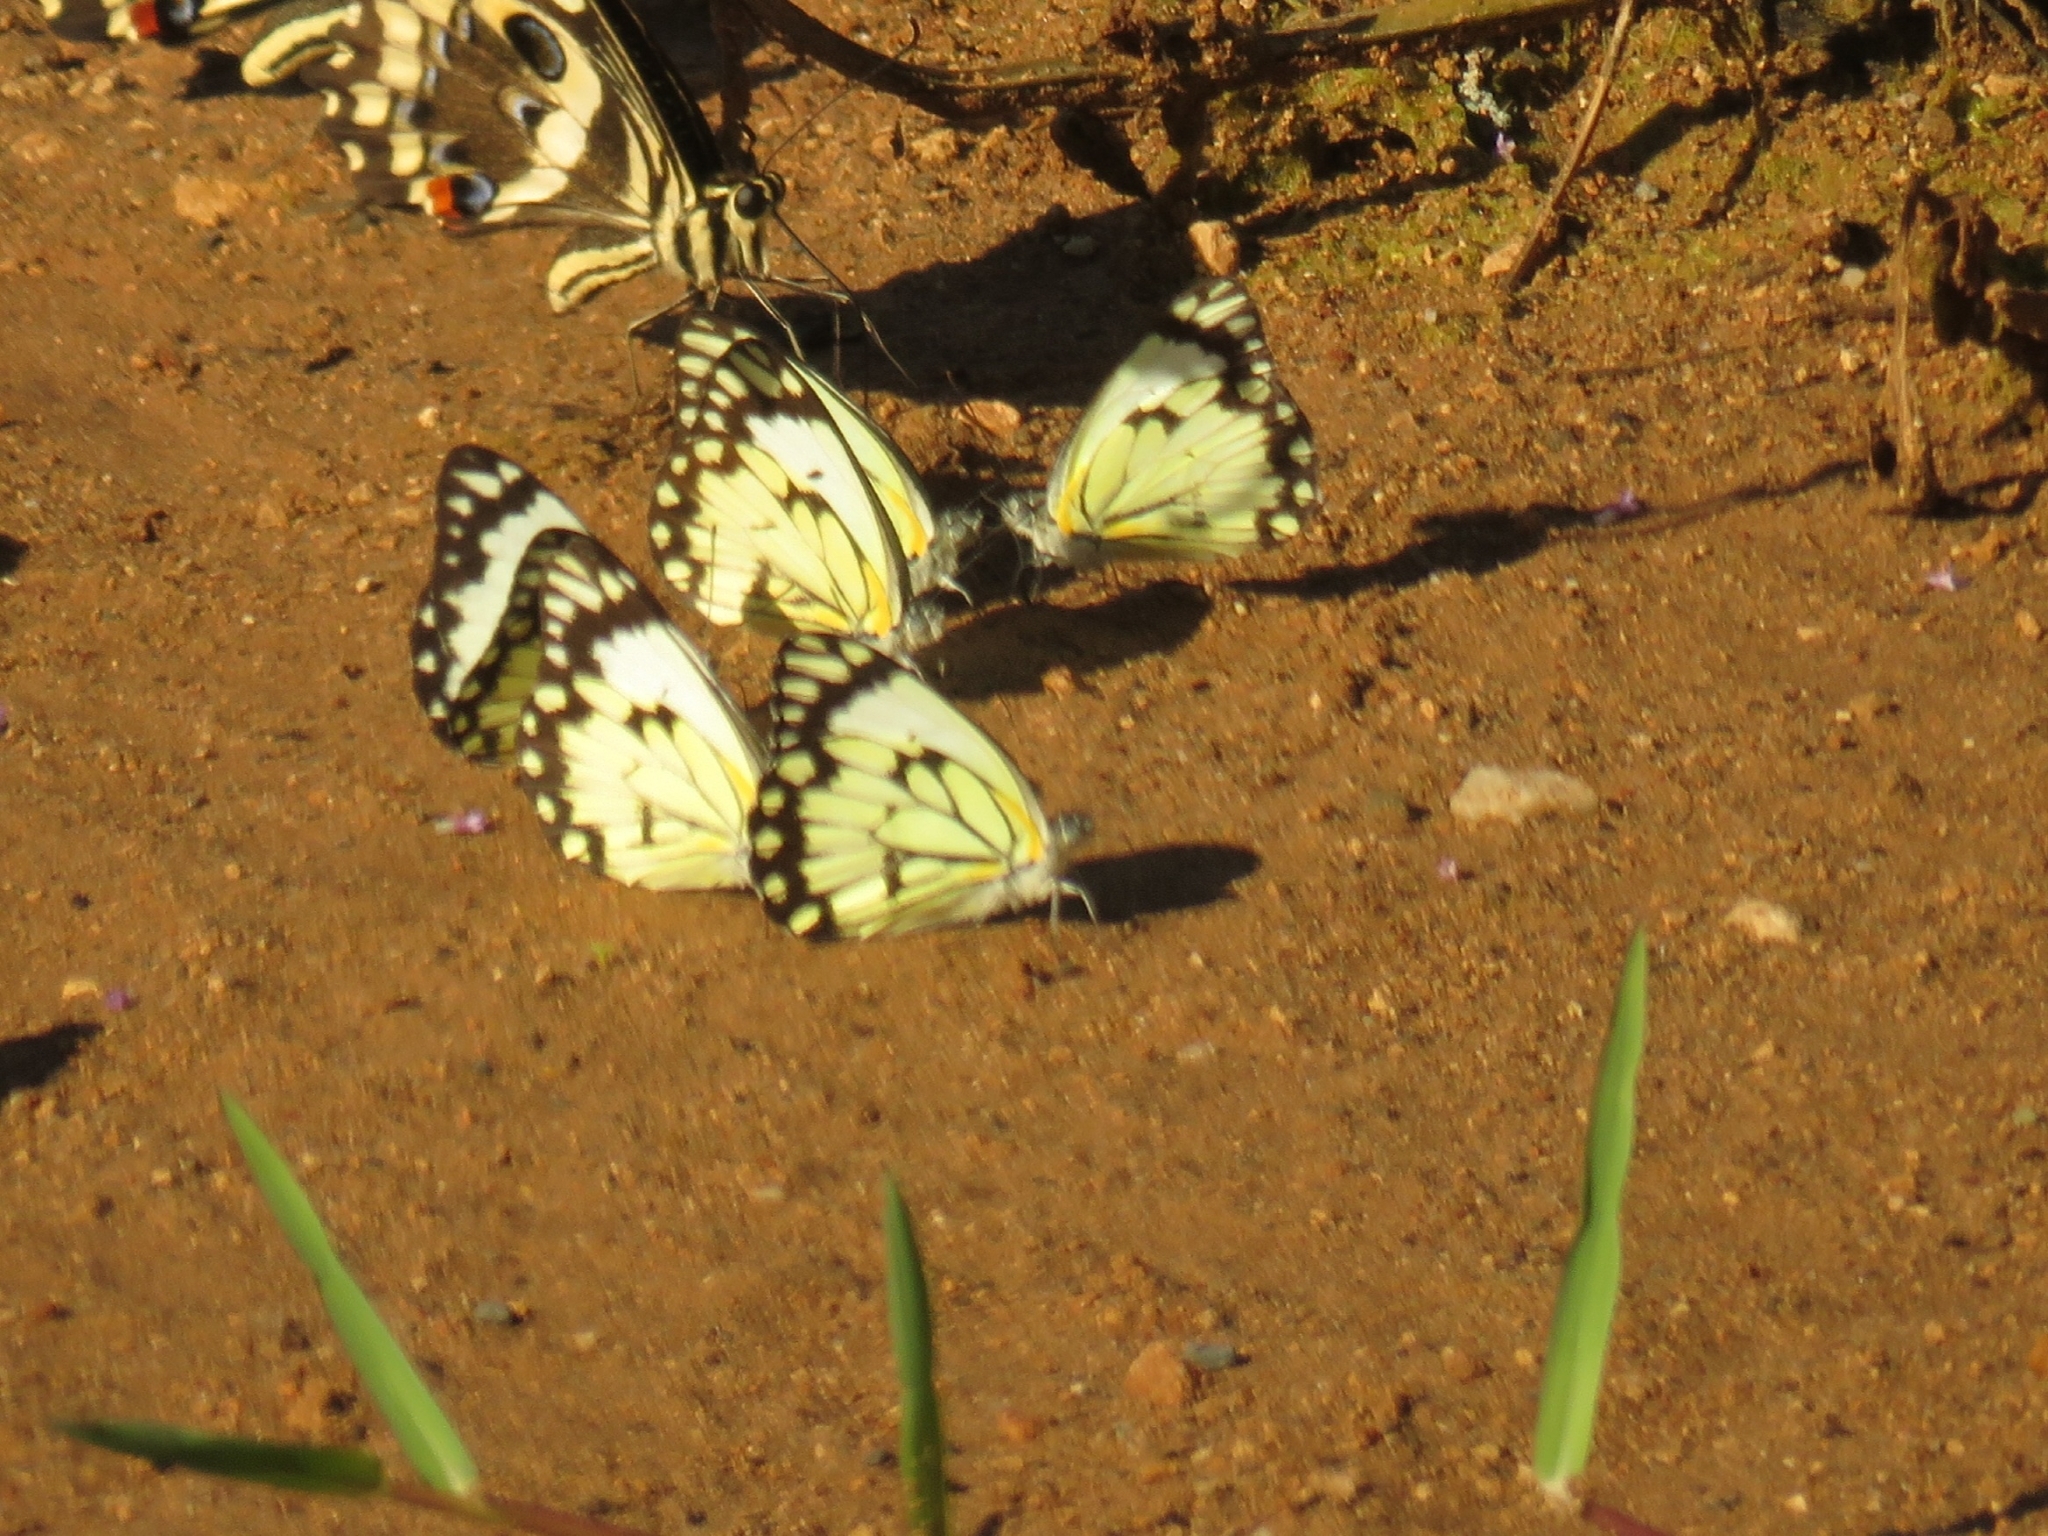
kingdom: Animalia
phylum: Arthropoda
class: Insecta
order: Lepidoptera
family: Pieridae
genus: Belenois
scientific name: Belenois creona
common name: African caper white
